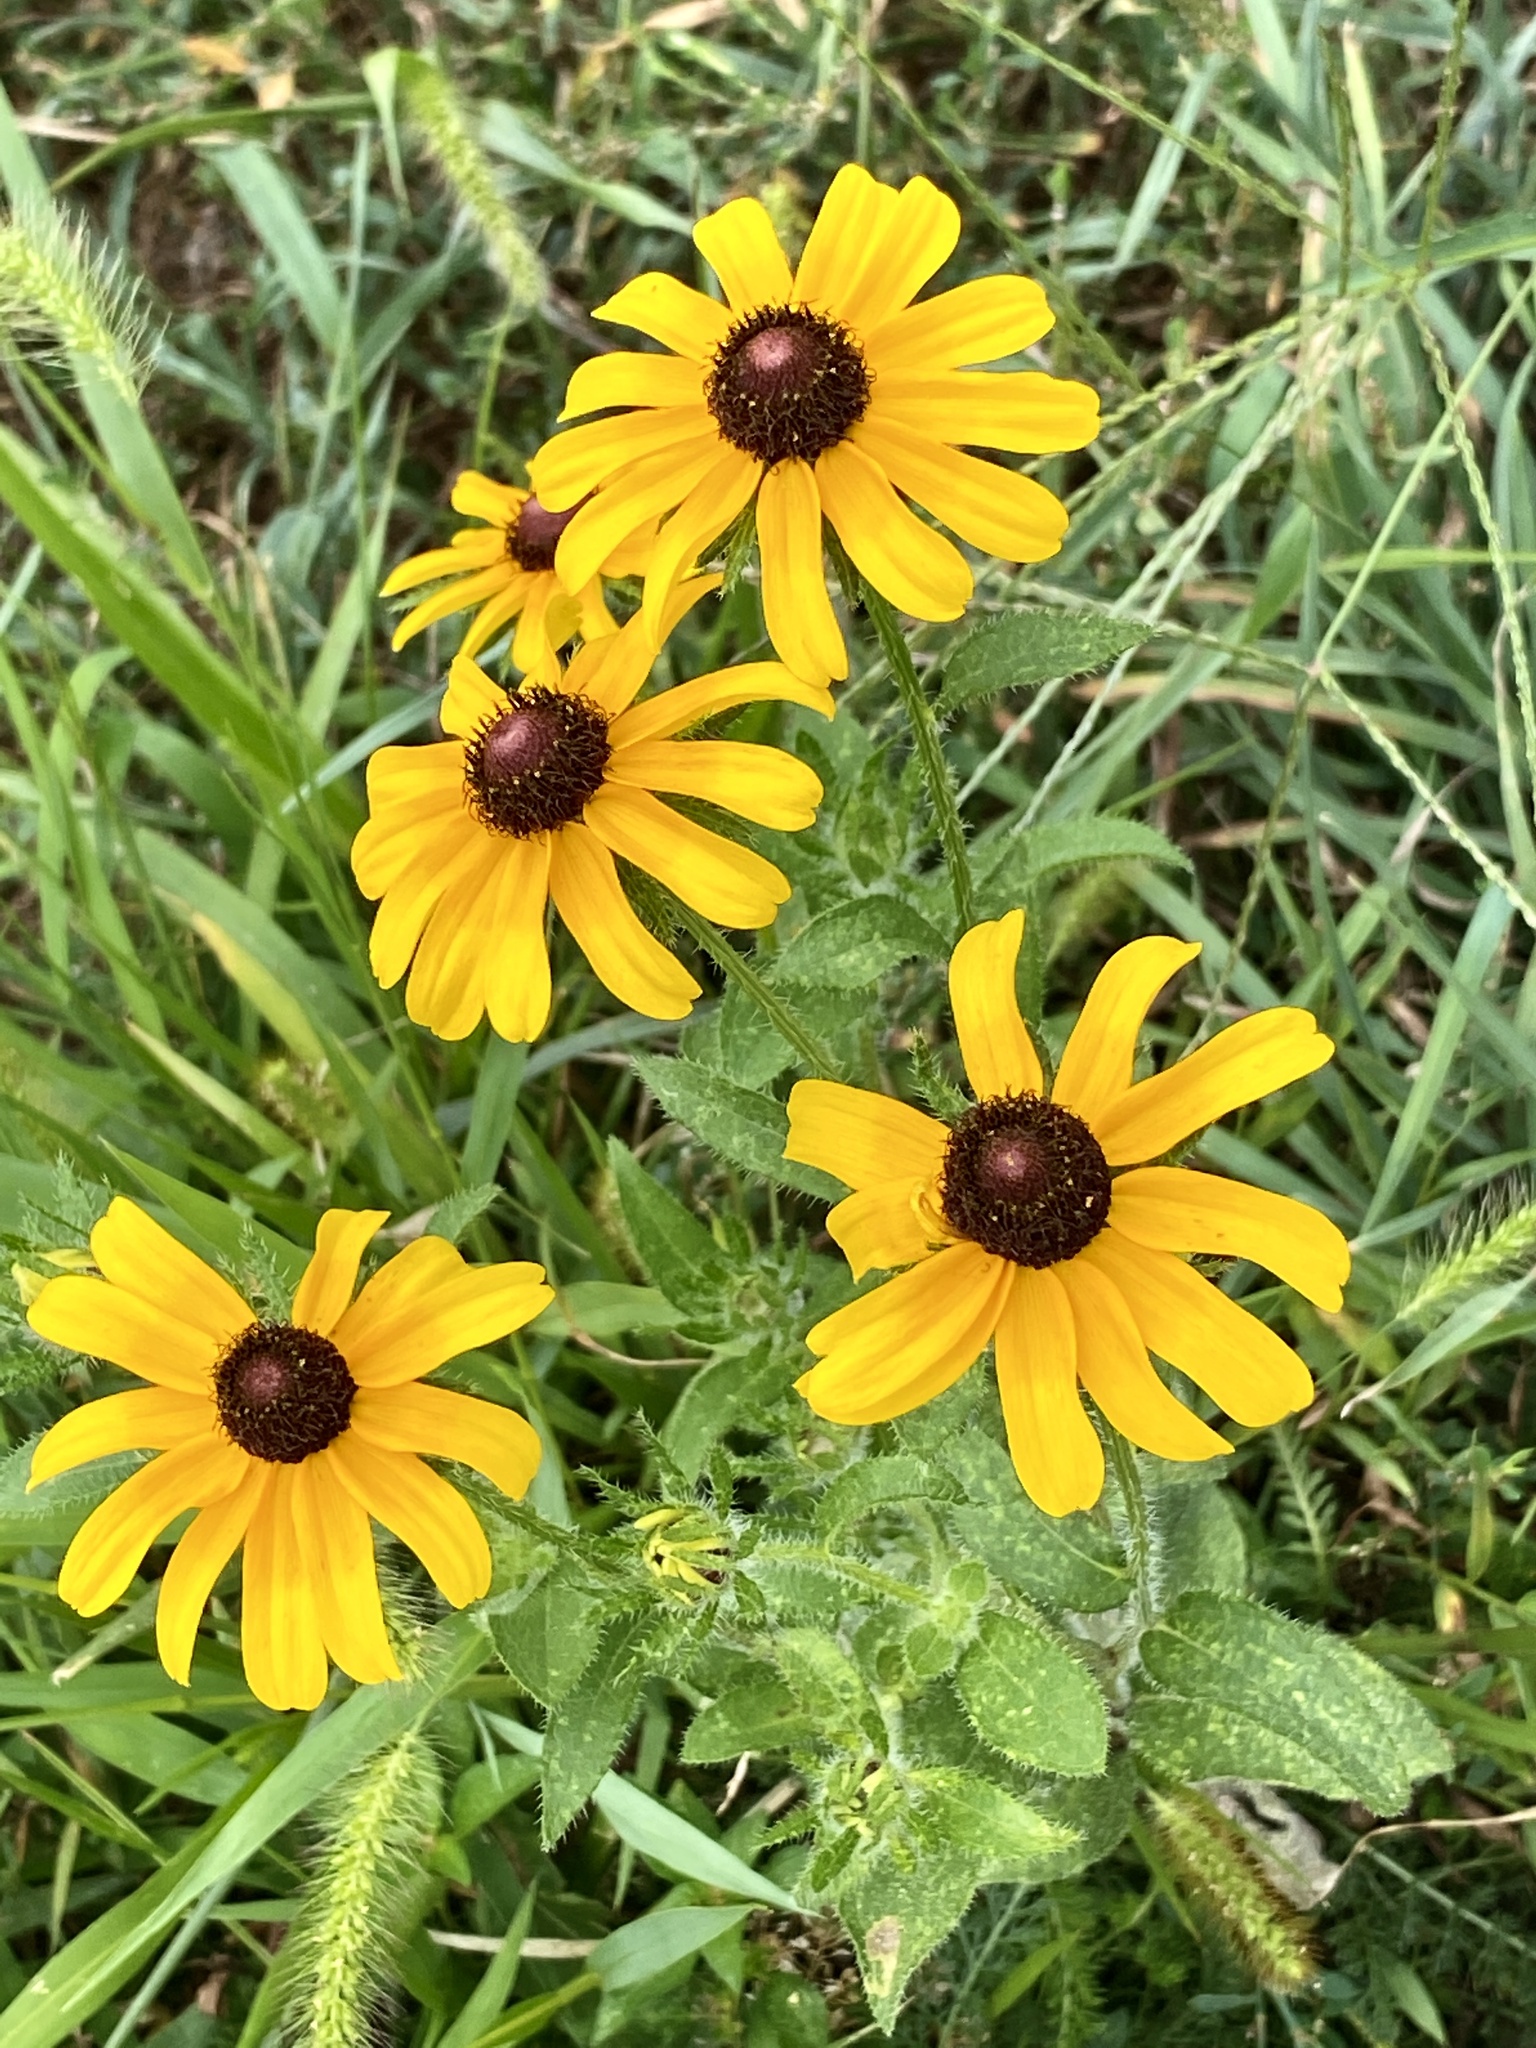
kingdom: Plantae
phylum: Tracheophyta
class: Magnoliopsida
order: Asterales
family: Asteraceae
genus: Rudbeckia
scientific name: Rudbeckia hirta
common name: Black-eyed-susan
